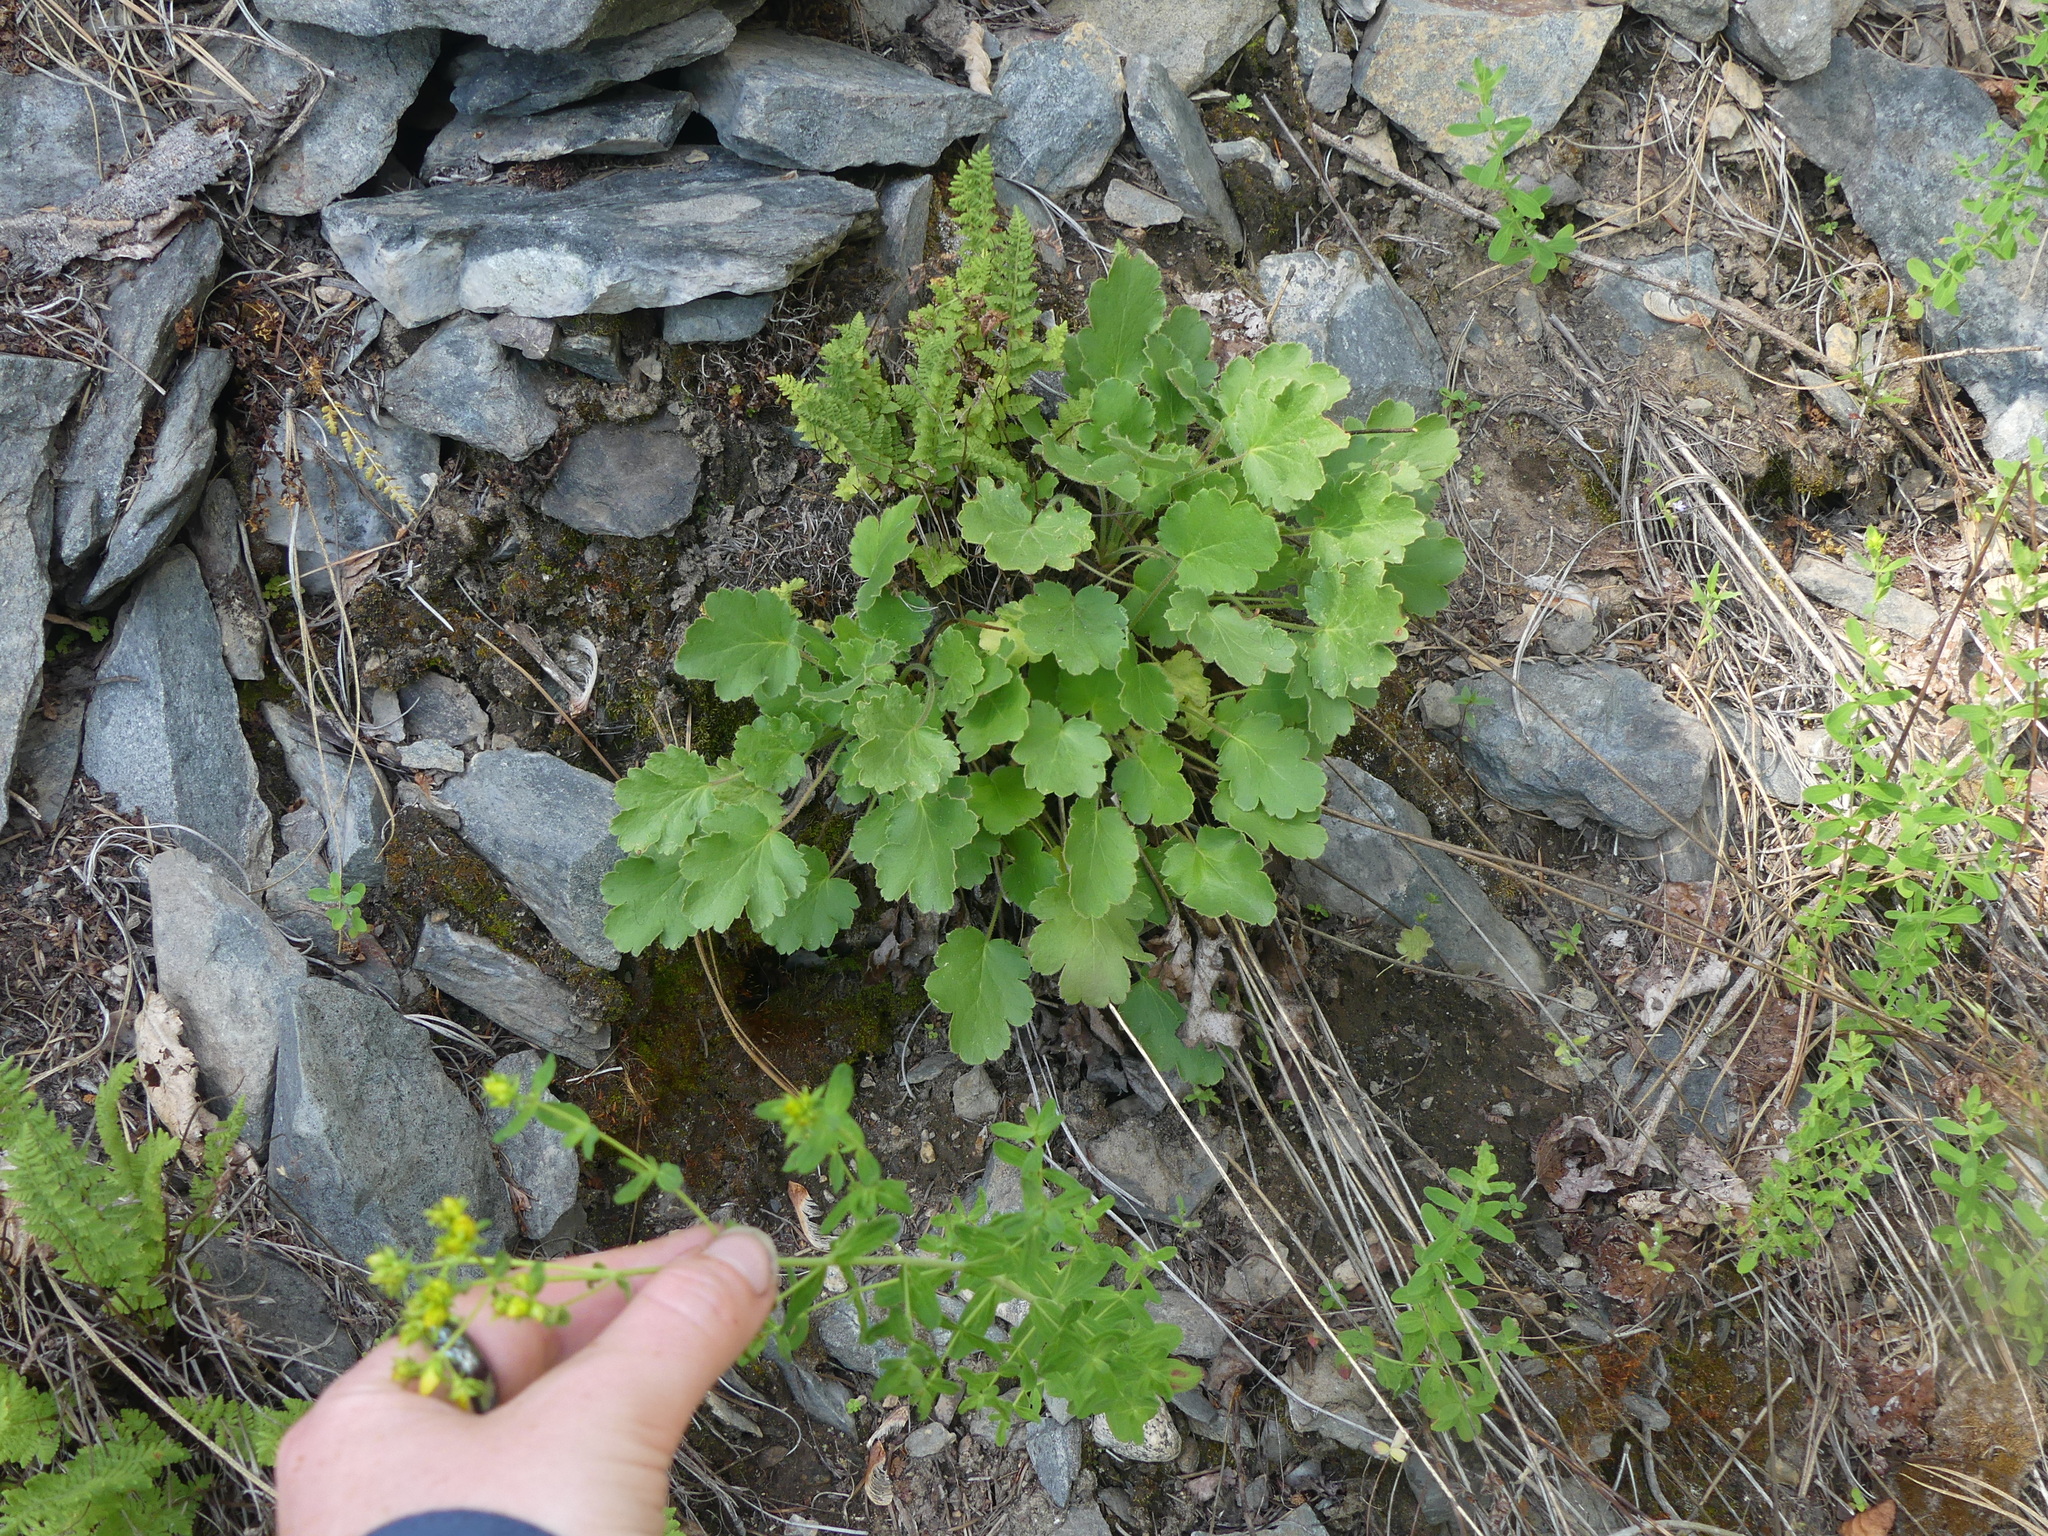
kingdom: Plantae
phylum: Tracheophyta
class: Magnoliopsida
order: Malpighiales
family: Hypericaceae
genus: Hypericum
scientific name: Hypericum perforatum
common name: Common st. johnswort
